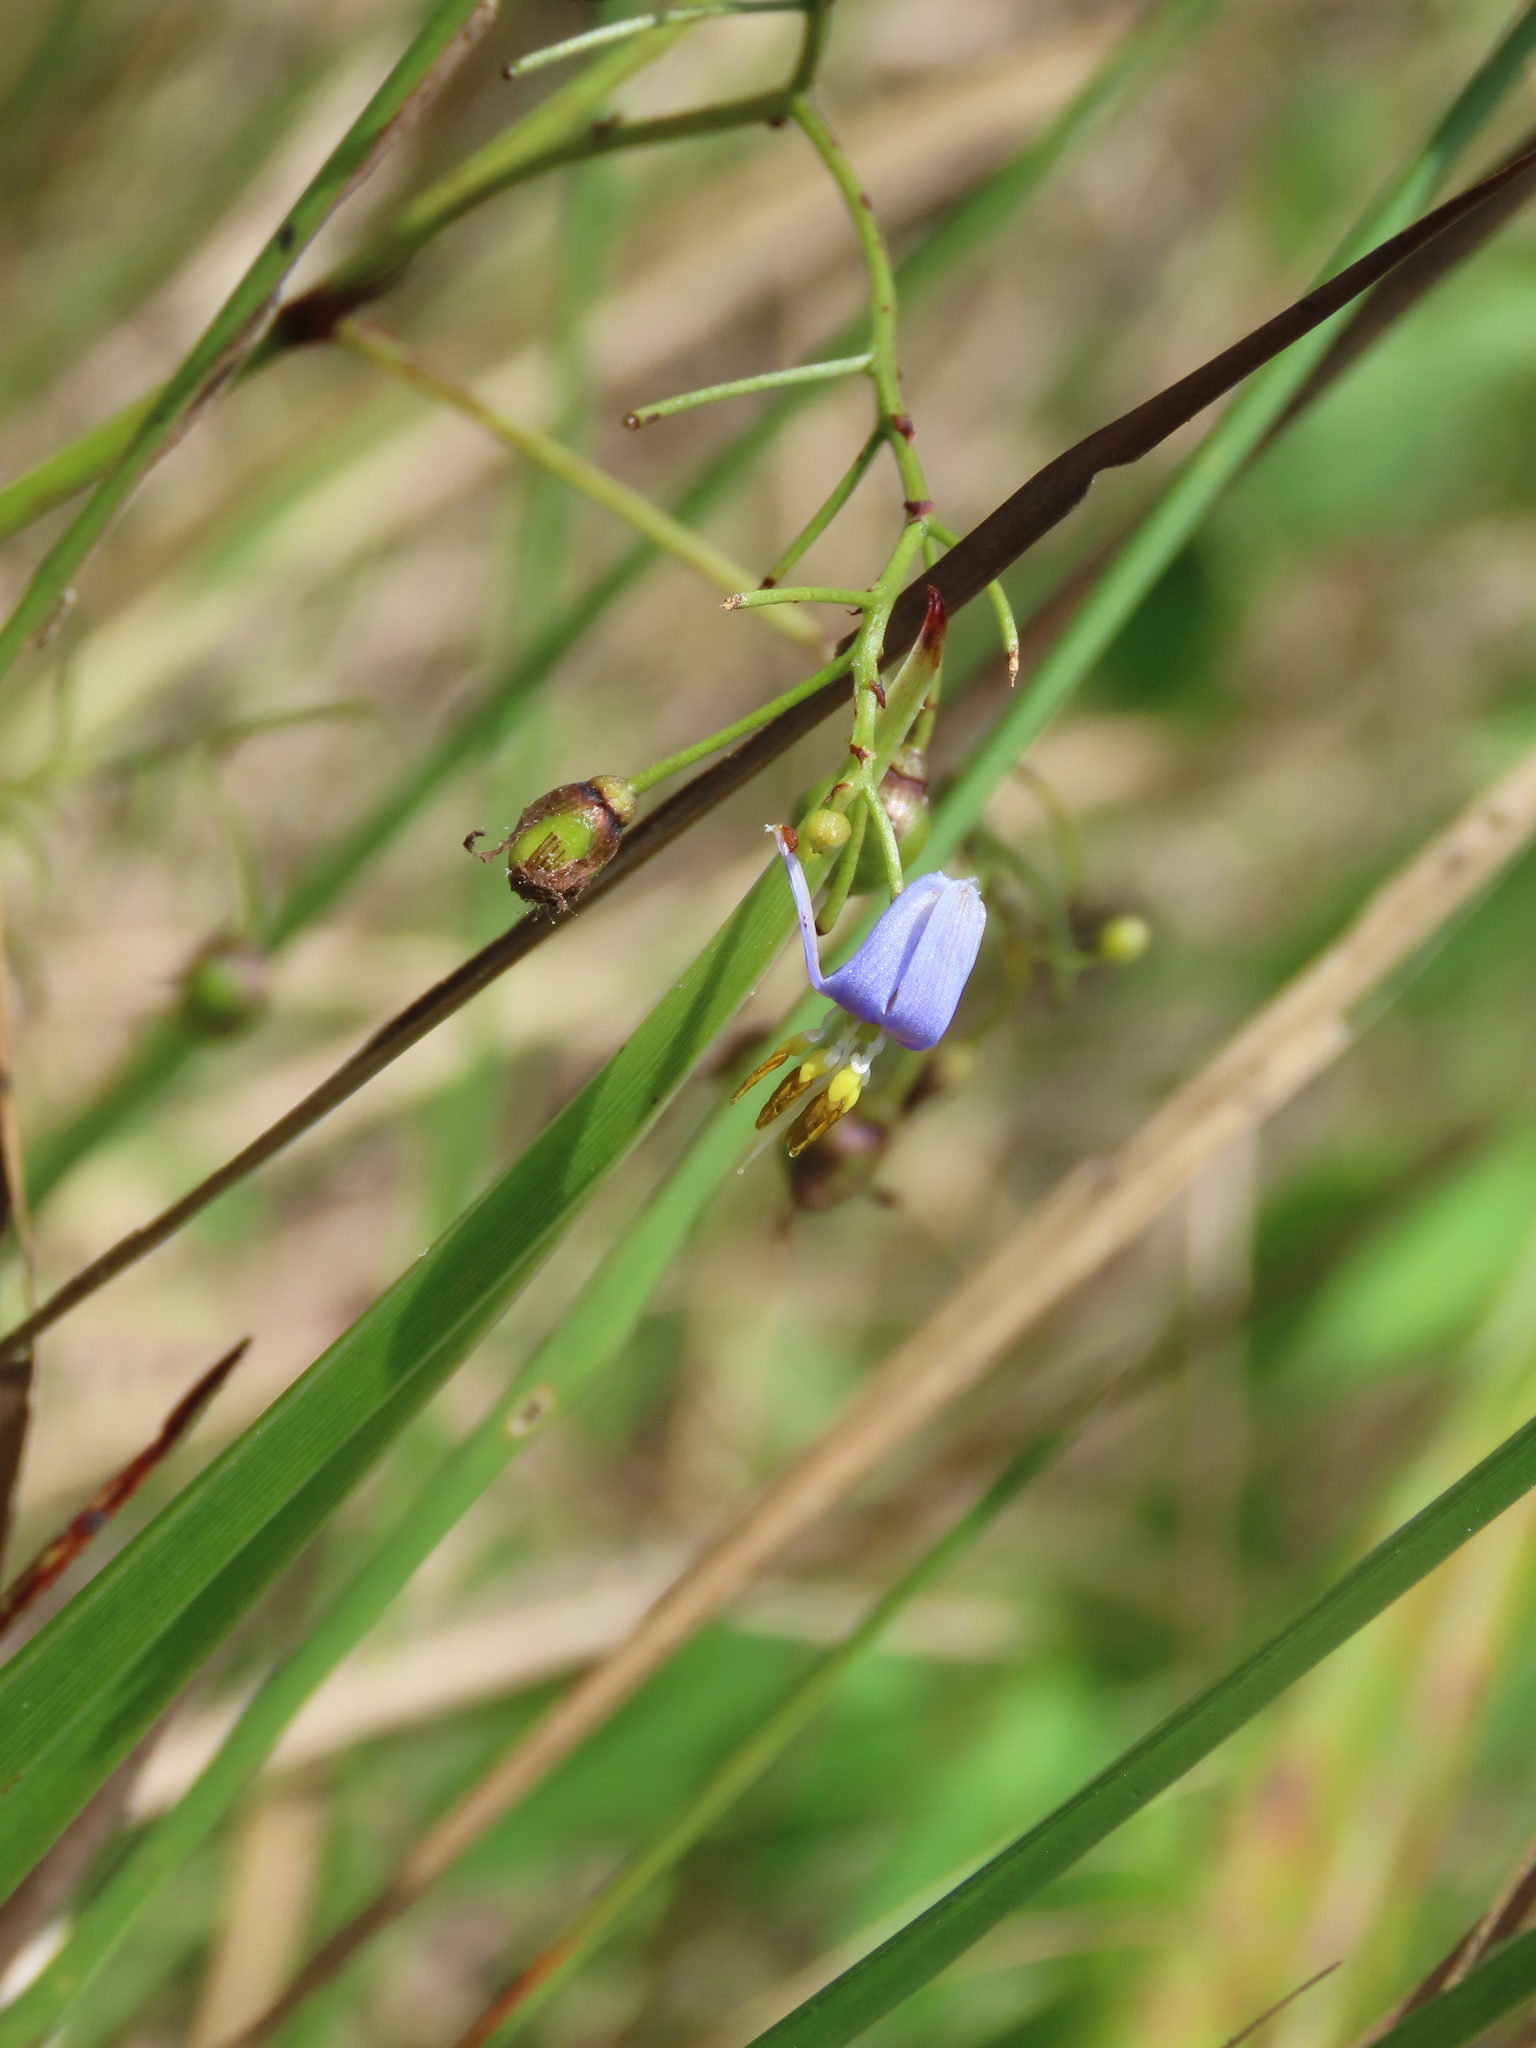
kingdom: Plantae
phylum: Tracheophyta
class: Liliopsida
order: Asparagales
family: Asphodelaceae
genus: Dianella
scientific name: Dianella ensifolia
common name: New zealand lilyplant
